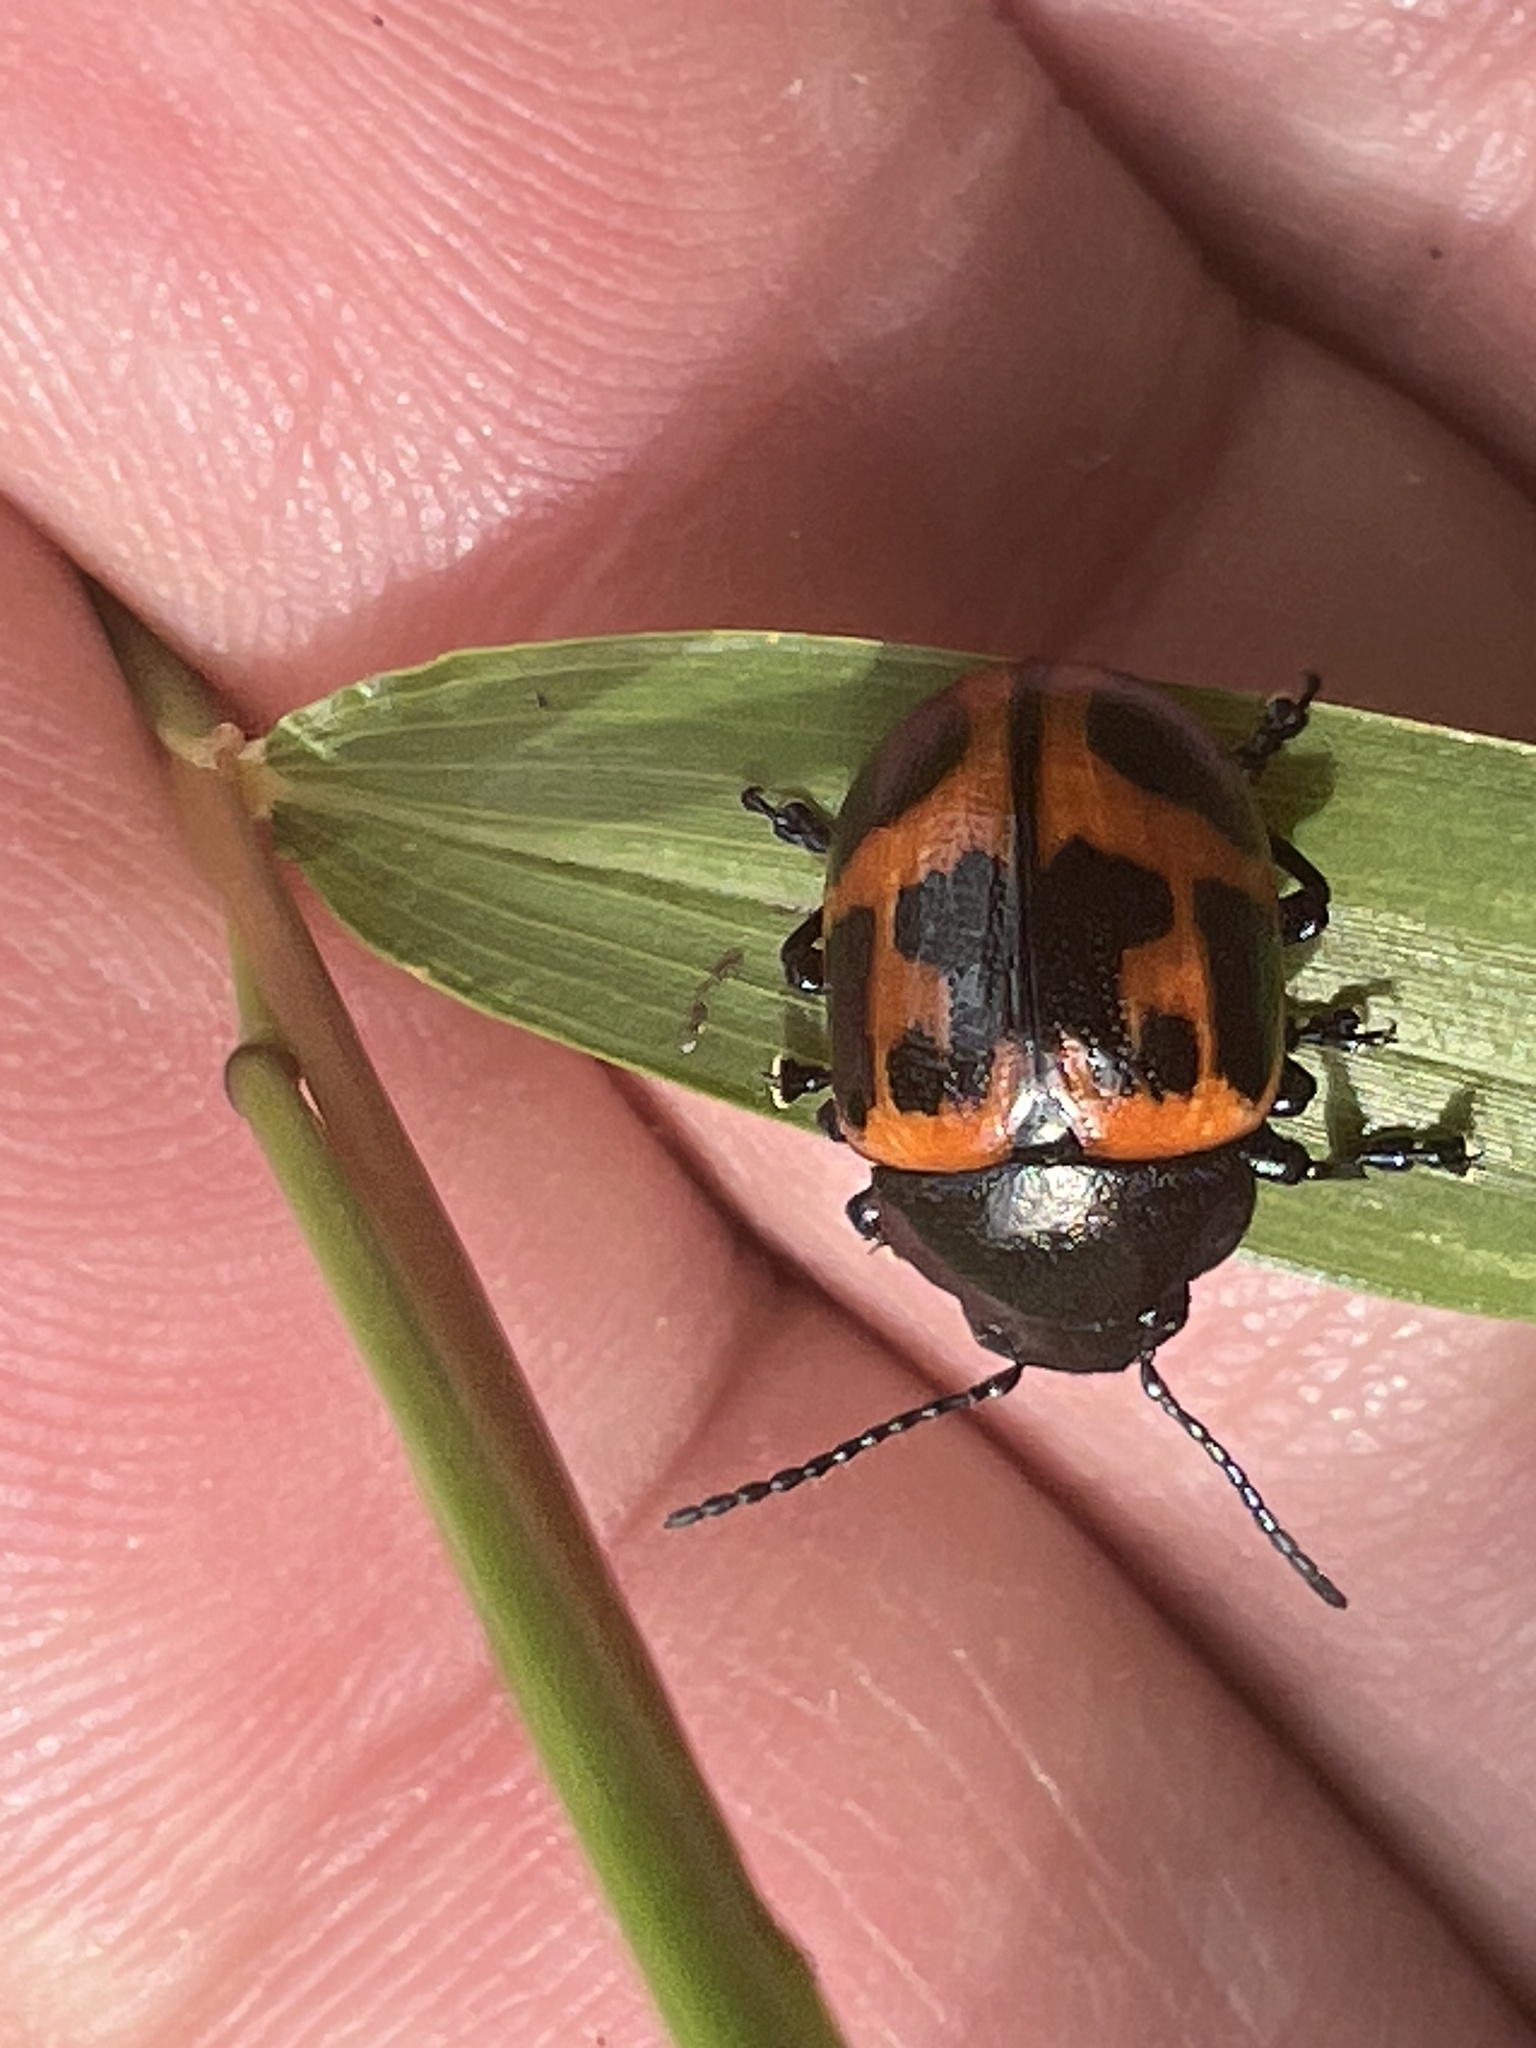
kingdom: Animalia
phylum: Arthropoda
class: Insecta
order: Coleoptera
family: Chrysomelidae
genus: Labidomera
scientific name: Labidomera clivicollis
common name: Swamp milkweed leaf beetle
